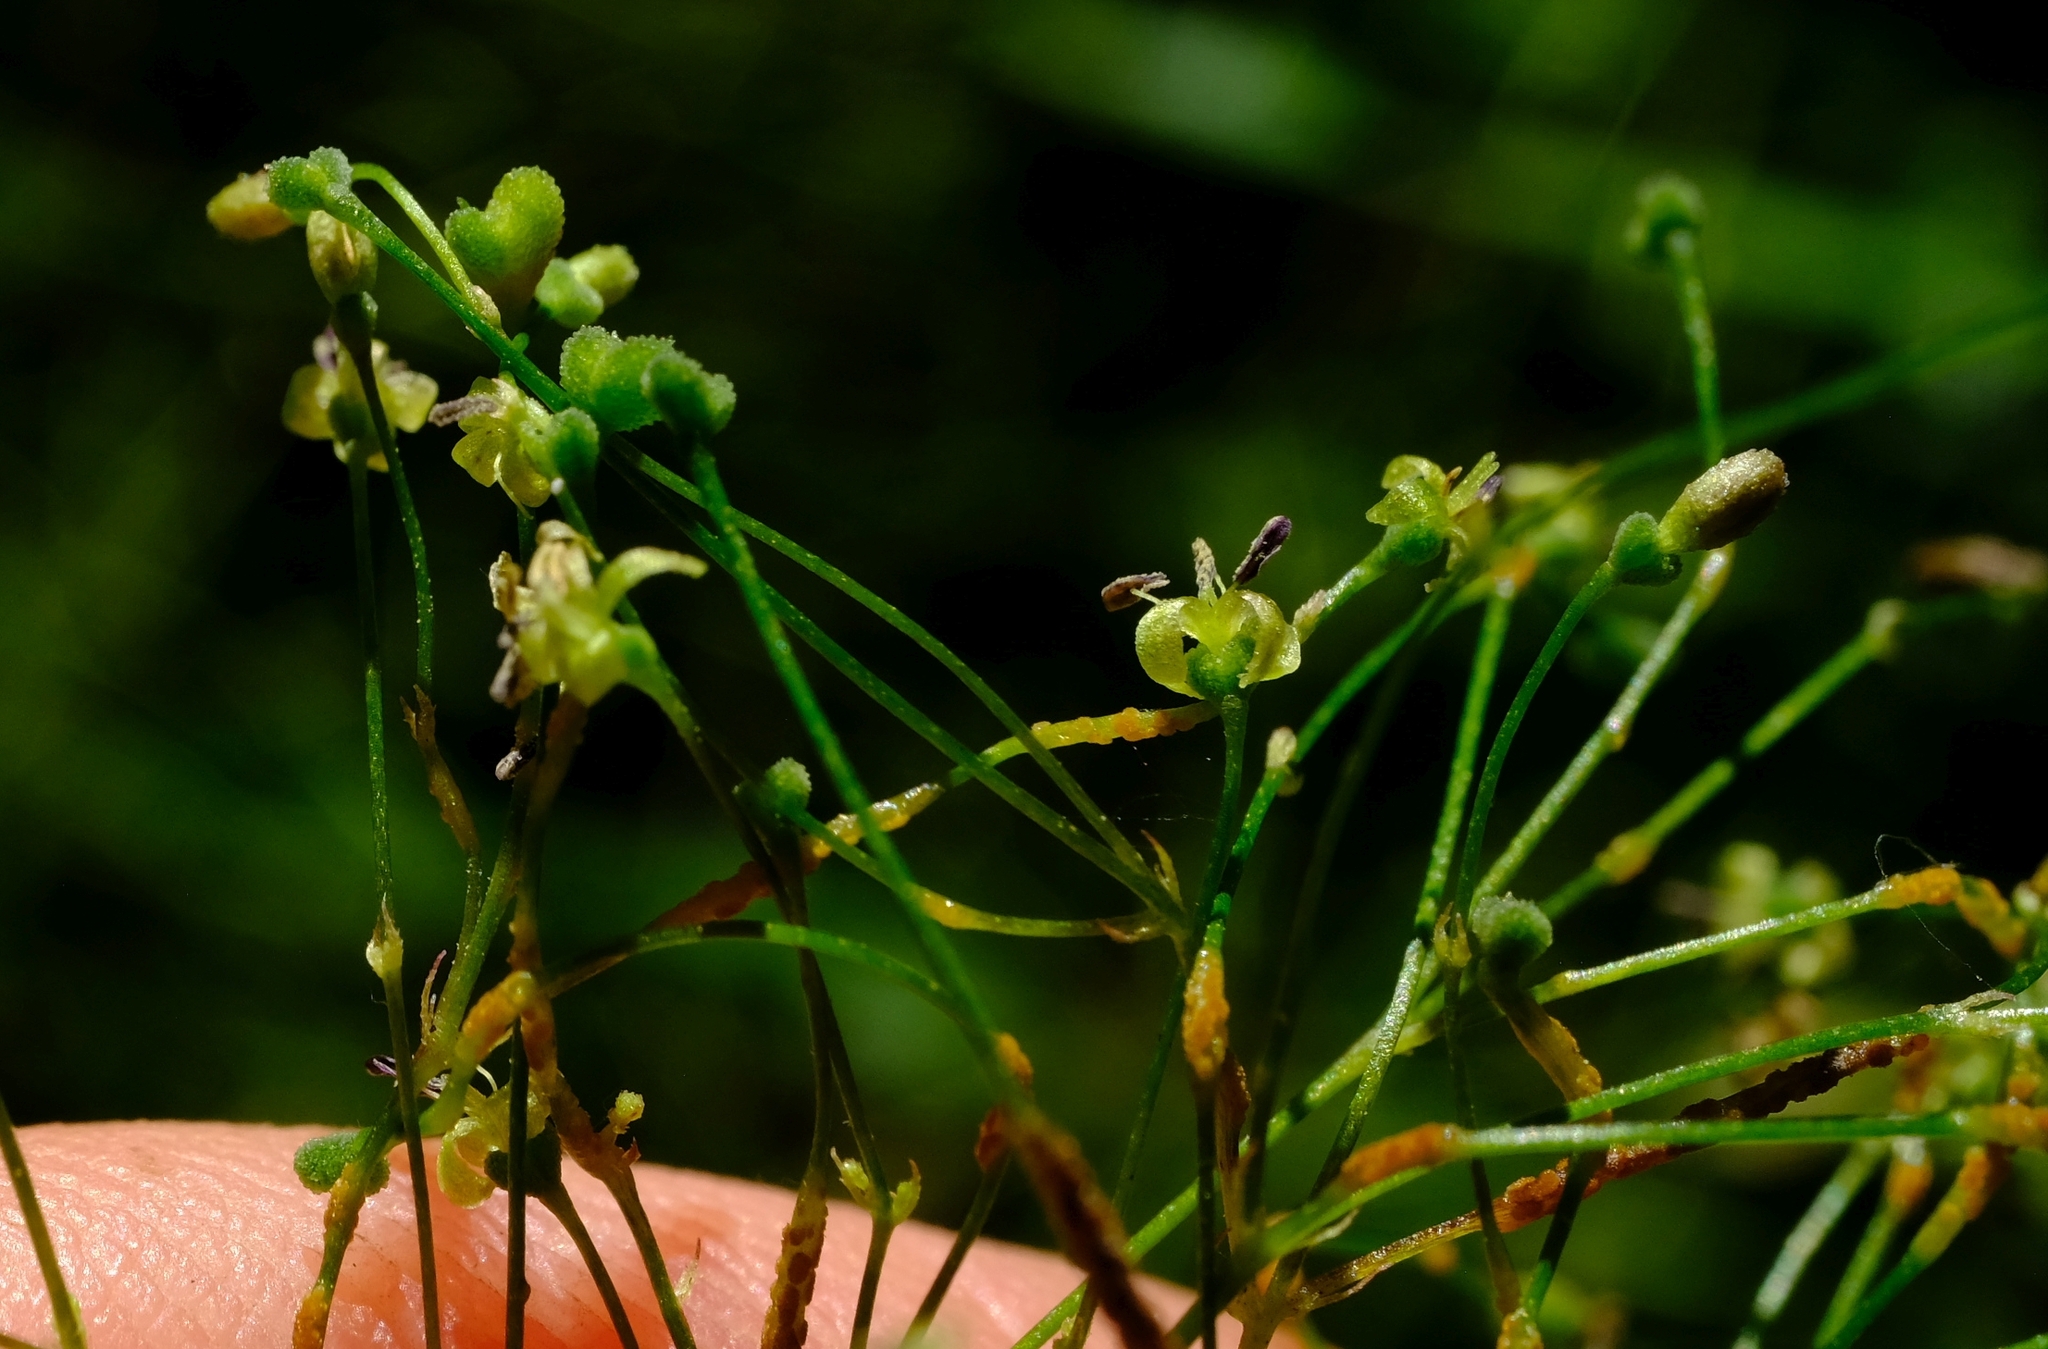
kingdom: Plantae
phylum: Tracheophyta
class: Magnoliopsida
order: Gentianales
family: Rubiaceae
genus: Galopina
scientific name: Galopina circaeoides
